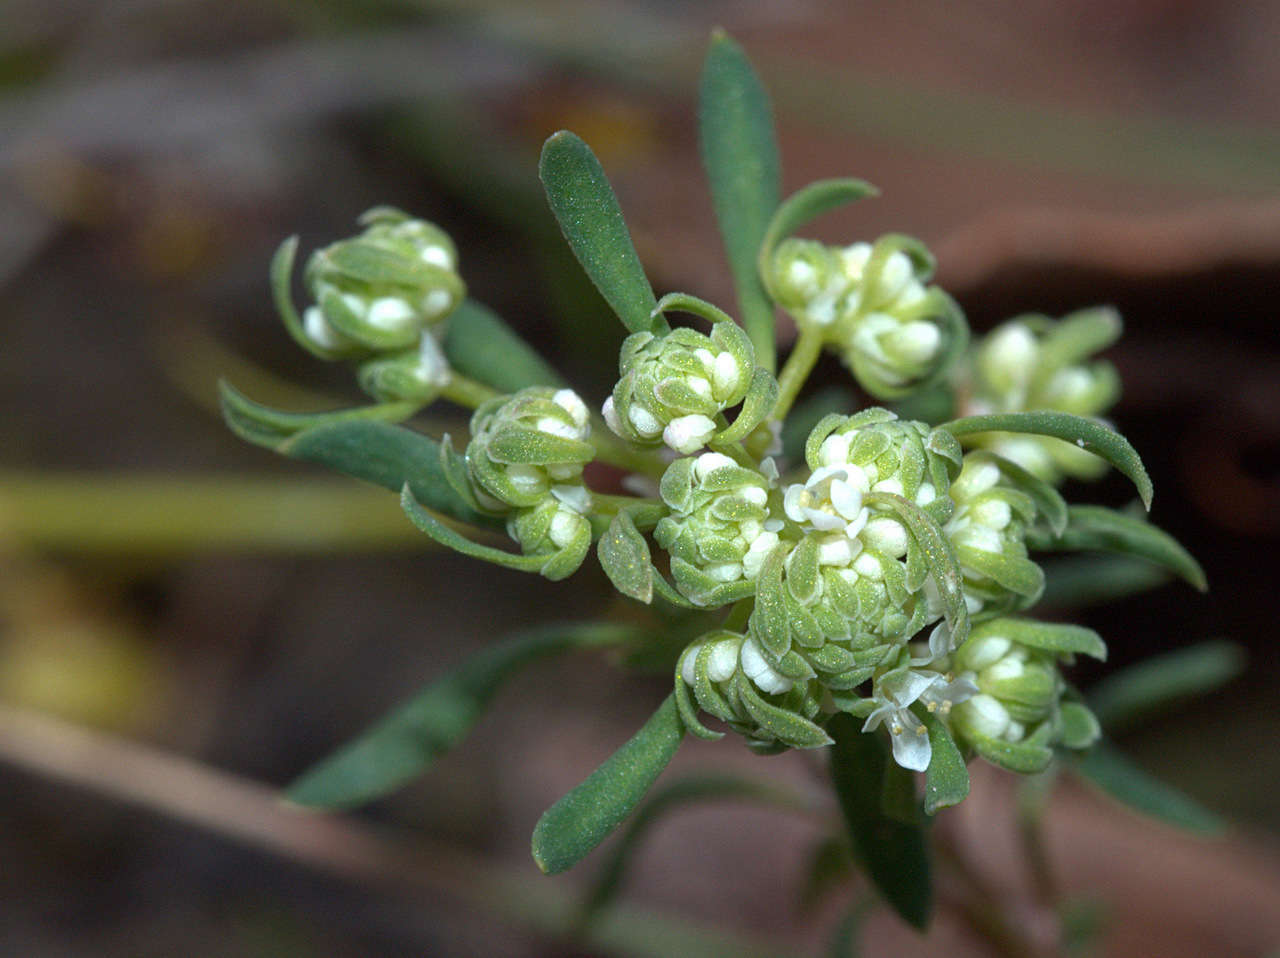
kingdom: Plantae
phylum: Tracheophyta
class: Magnoliopsida
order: Malpighiales
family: Phyllanthaceae
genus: Poranthera
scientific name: Poranthera microphylla
